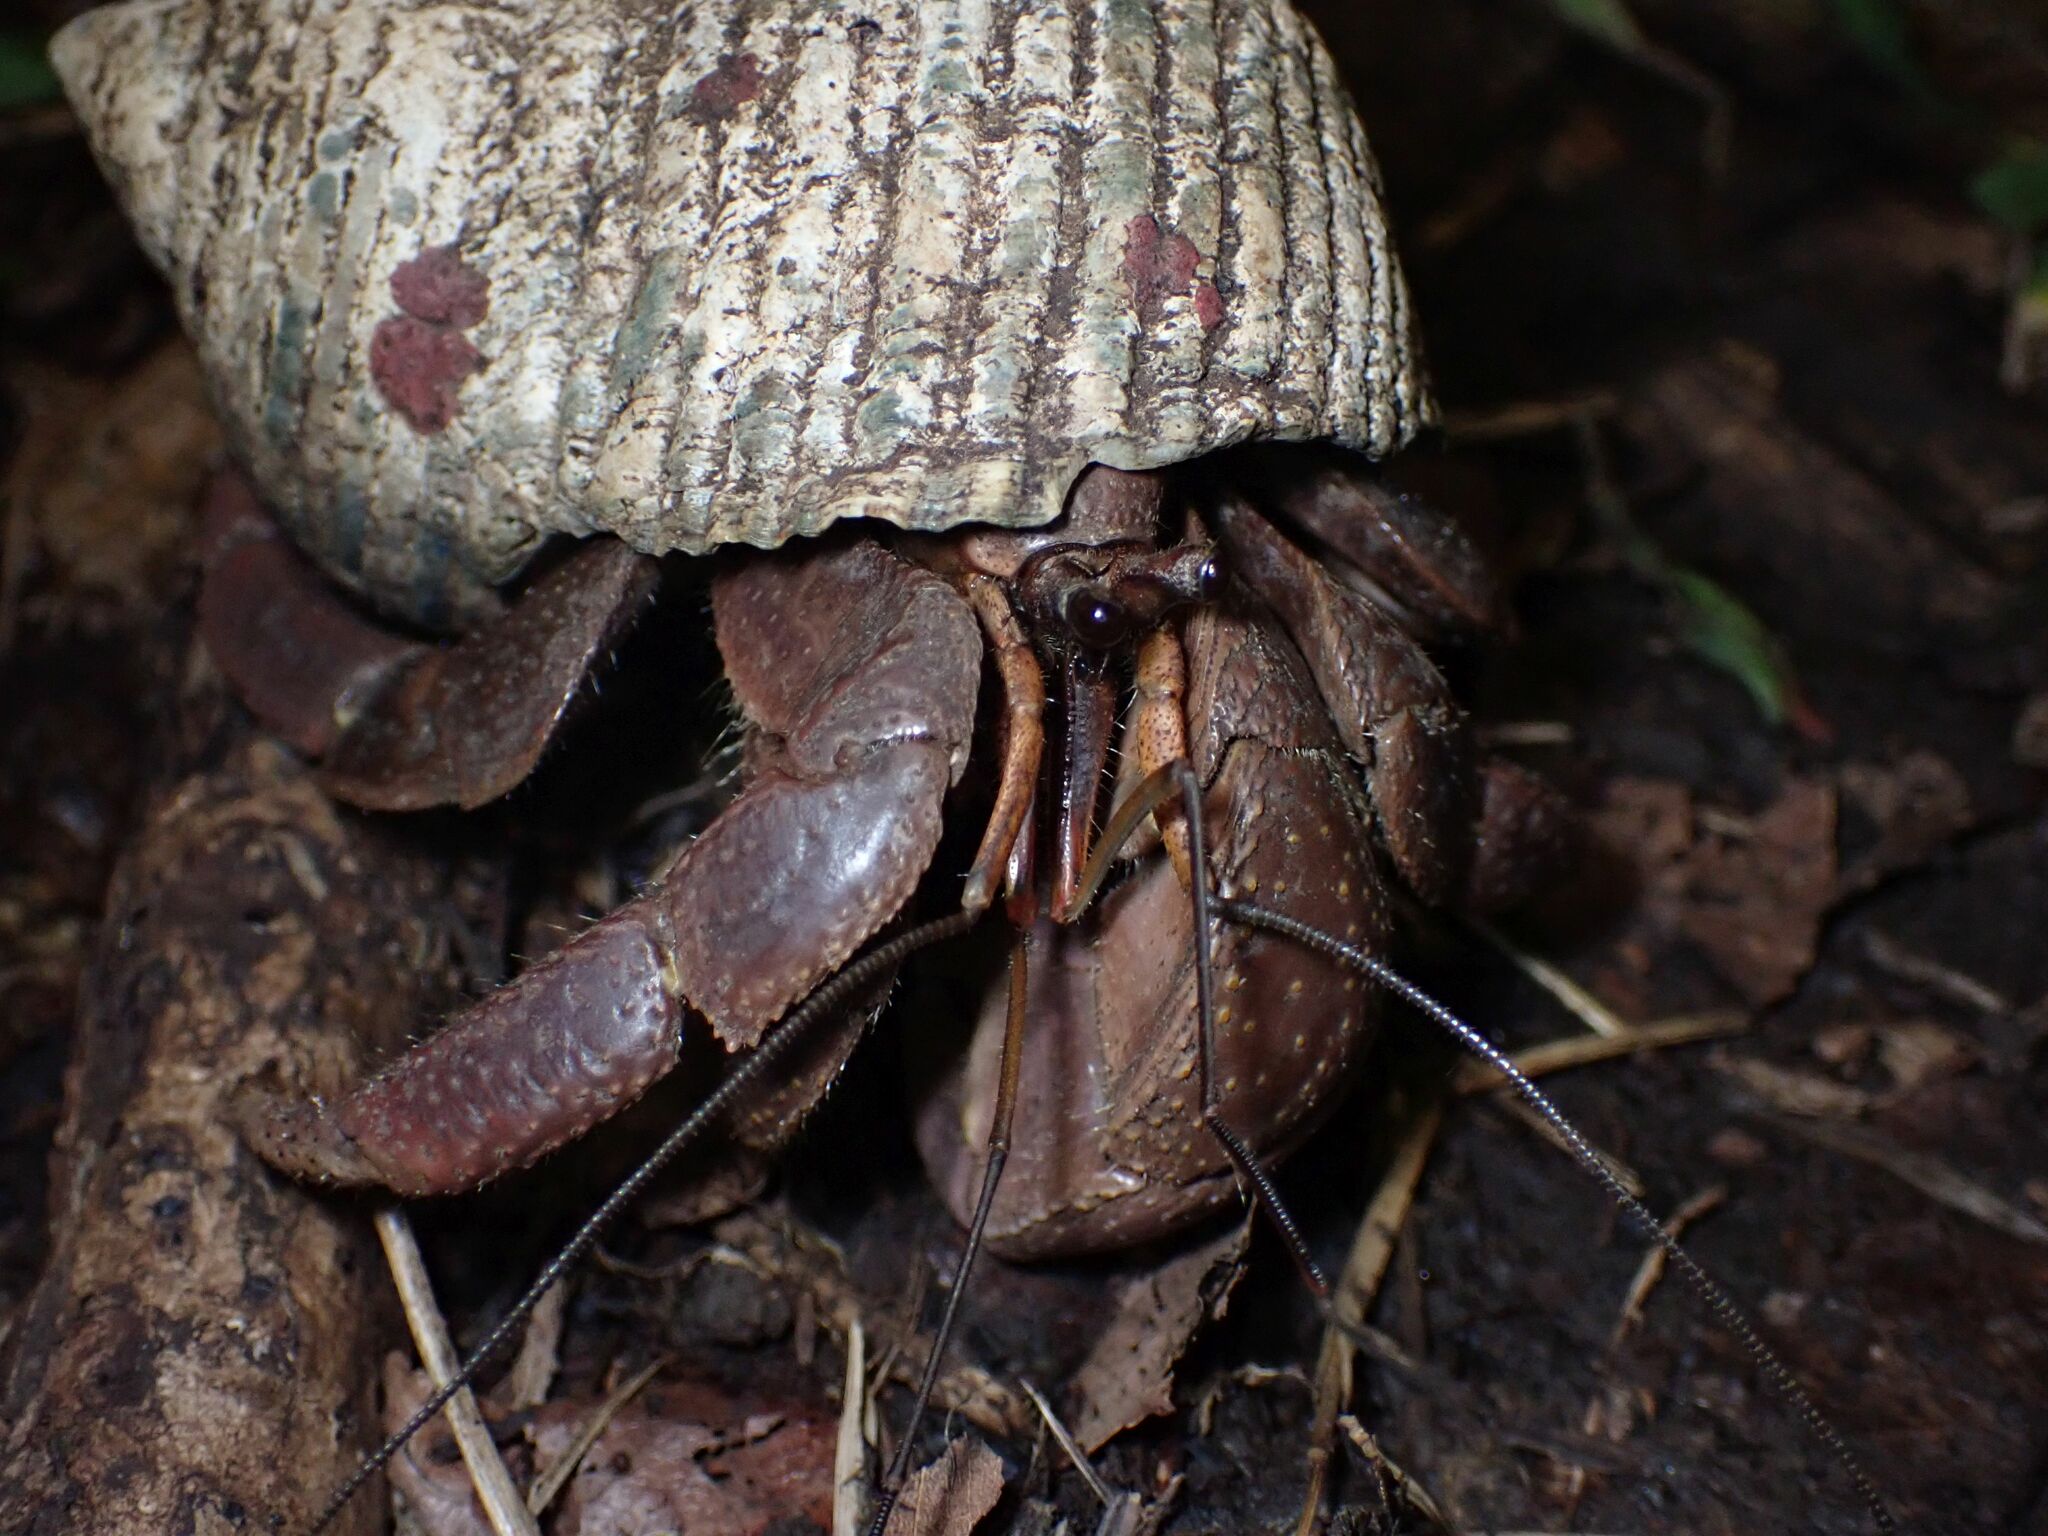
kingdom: Animalia
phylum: Arthropoda
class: Malacostraca
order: Decapoda
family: Coenobitidae
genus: Coenobita
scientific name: Coenobita brevimanus
